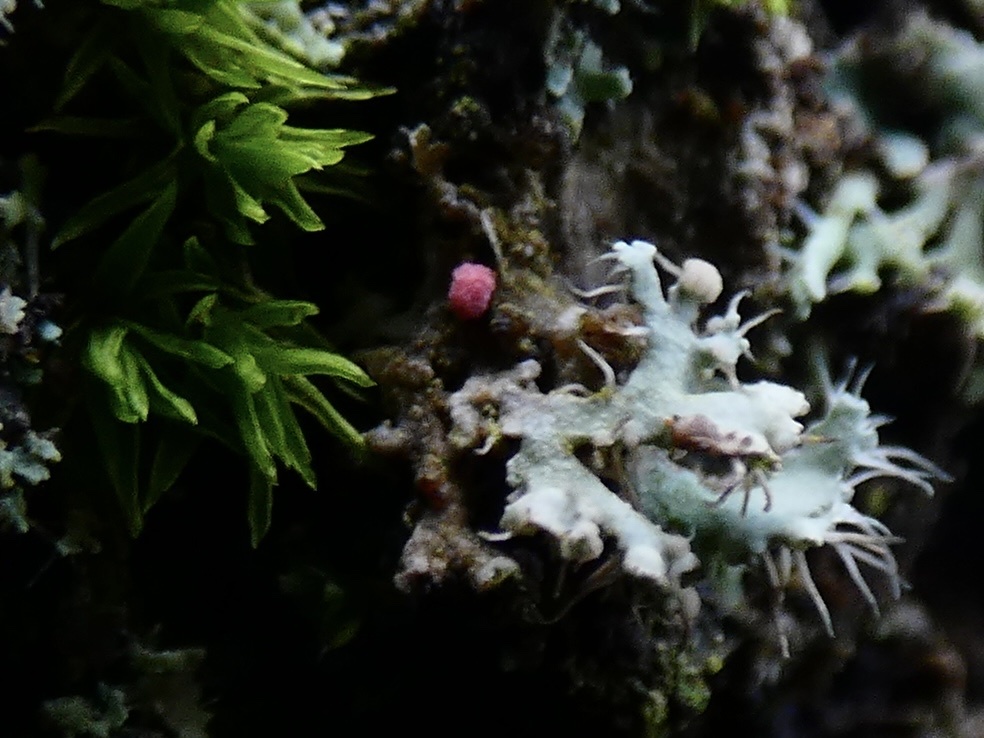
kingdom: Fungi
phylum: Ascomycota
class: Sordariomycetes
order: Hypocreales
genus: Illosporiopsis
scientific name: Illosporiopsis christiansenii
